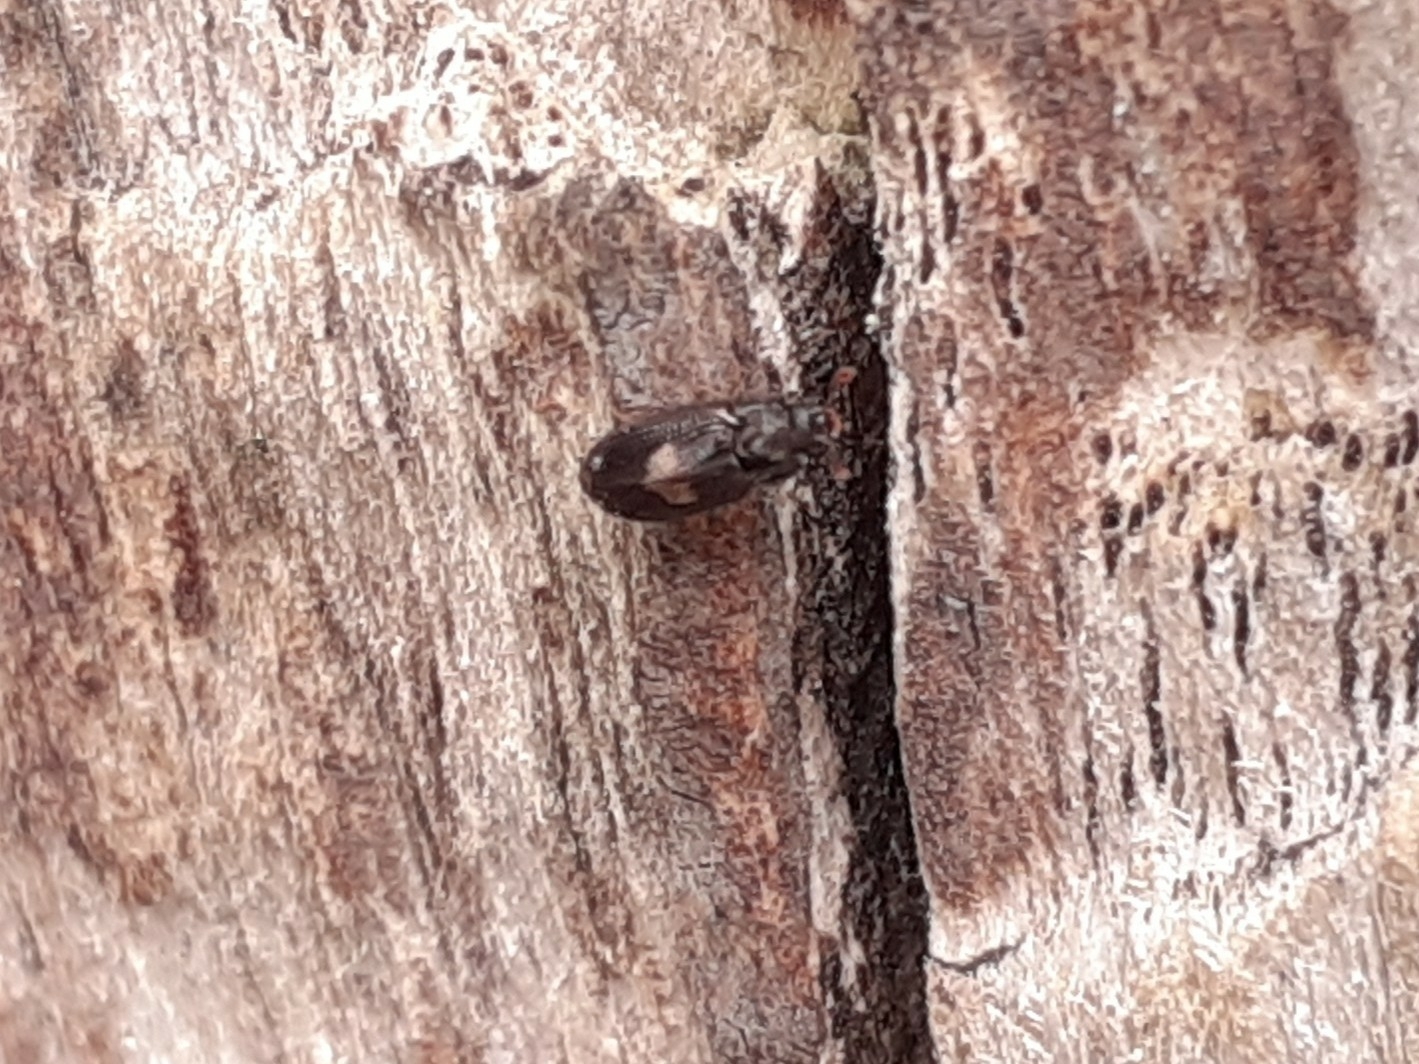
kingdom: Animalia
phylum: Arthropoda
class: Insecta
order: Coleoptera
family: Biphyllidae
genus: Biphyllus
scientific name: Biphyllus lunatus
